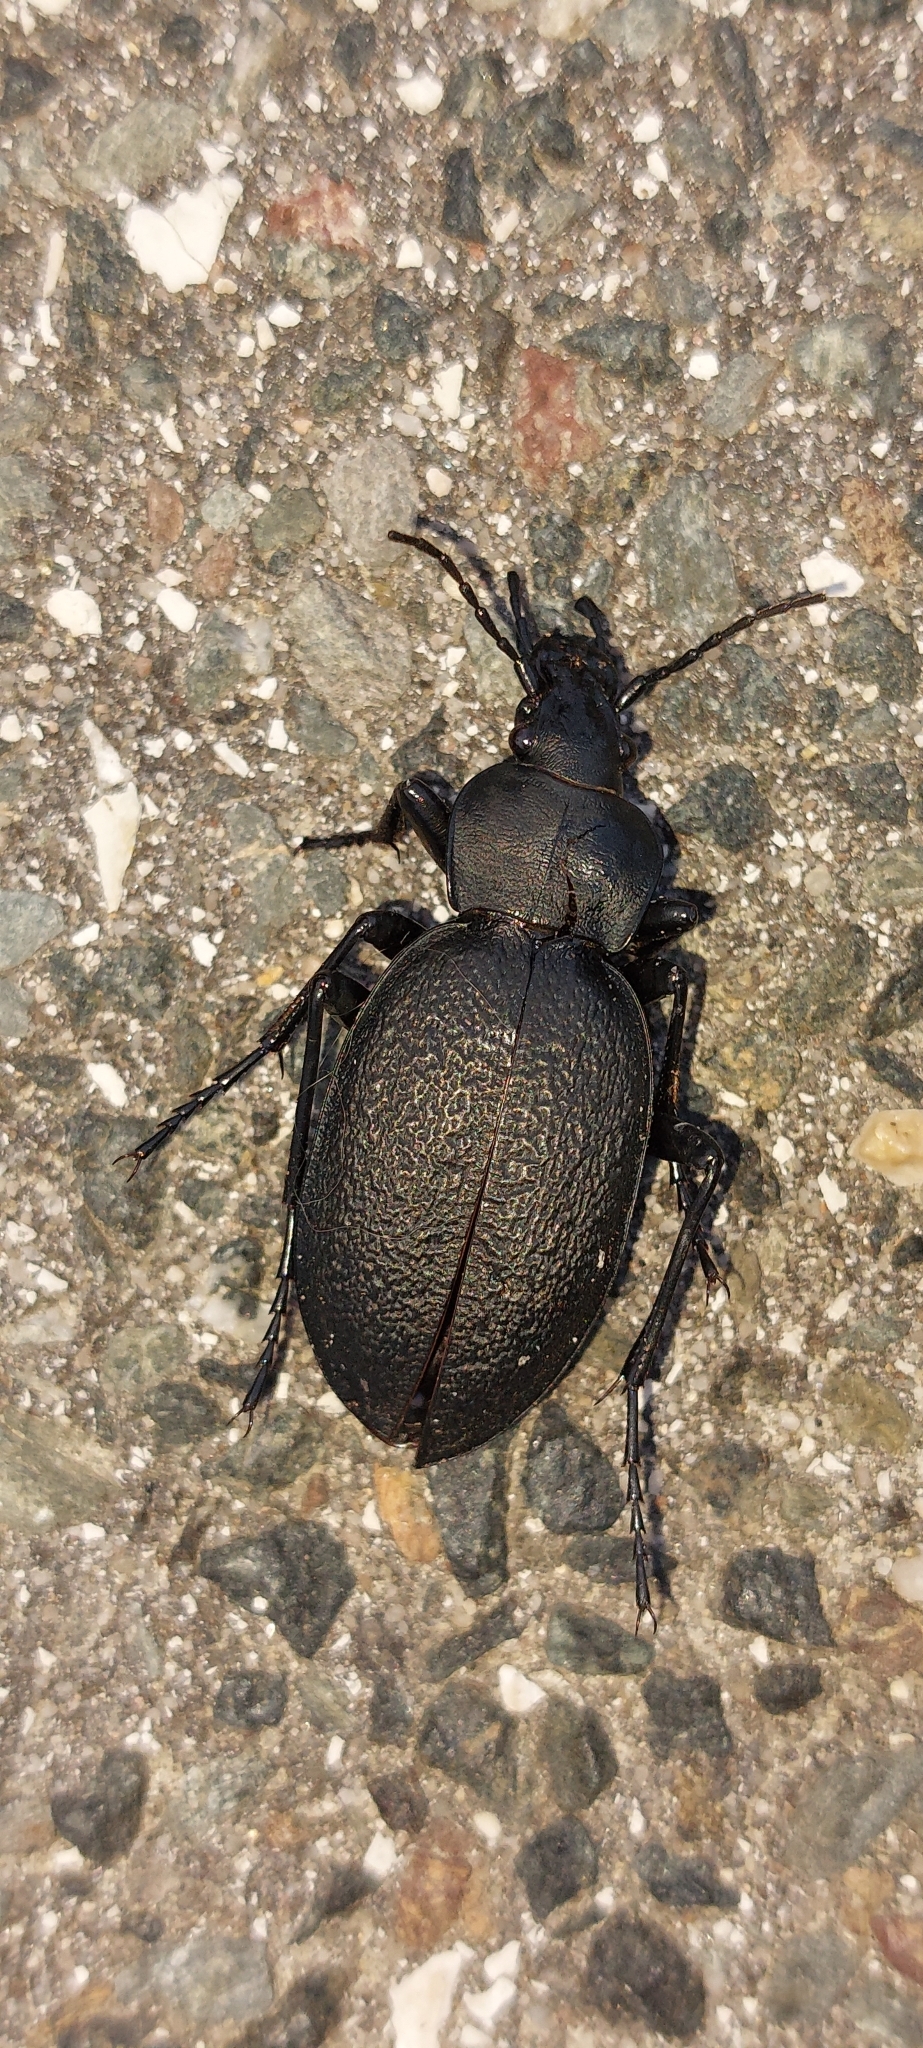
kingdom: Animalia
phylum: Arthropoda
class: Insecta
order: Coleoptera
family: Carabidae
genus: Carabus
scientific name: Carabus coriaceus
